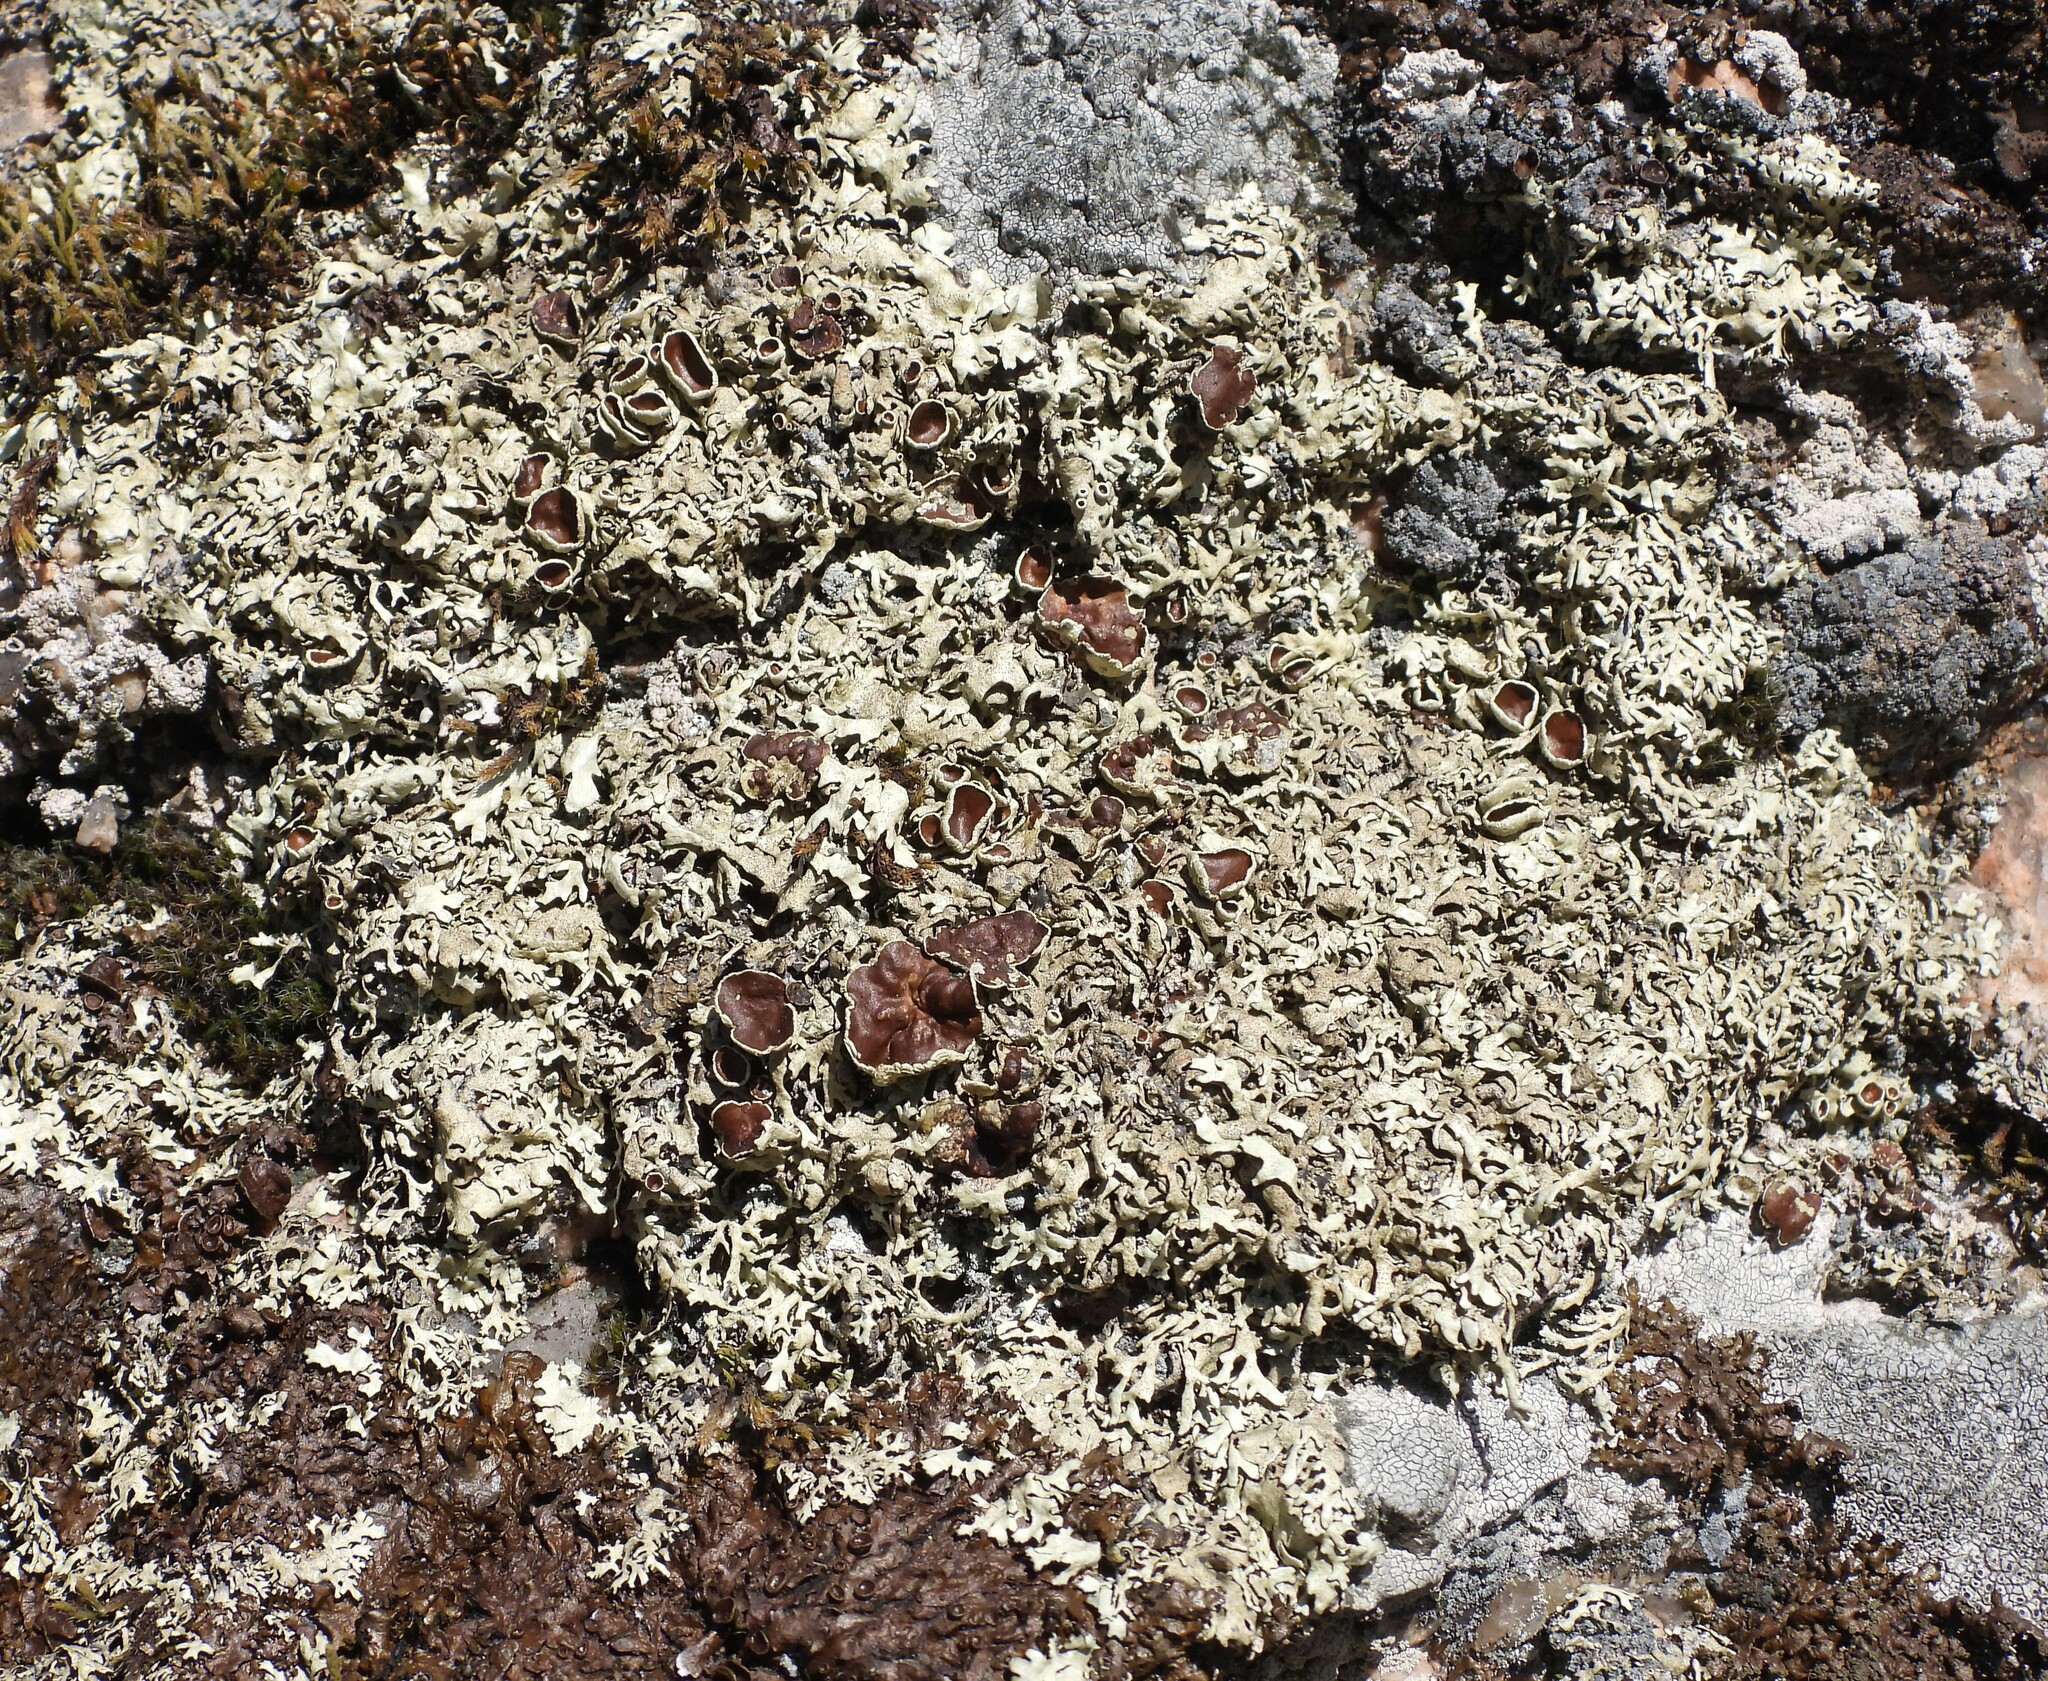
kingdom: Fungi
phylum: Ascomycota
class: Lecanoromycetes
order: Lecanorales
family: Parmeliaceae
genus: Xanthoparmelia
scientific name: Xanthoparmelia stenophylla
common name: Shingled rock shield
